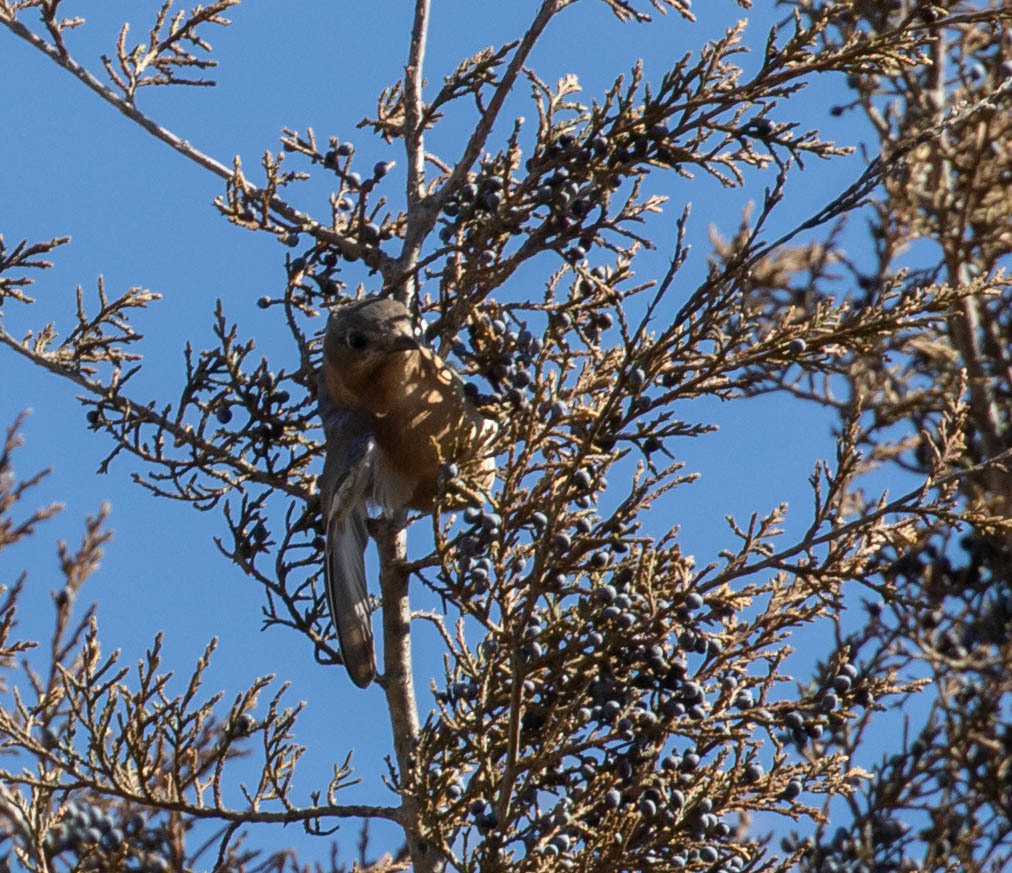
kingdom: Animalia
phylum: Chordata
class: Aves
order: Passeriformes
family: Turdidae
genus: Sialia
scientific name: Sialia sialis
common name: Eastern bluebird
